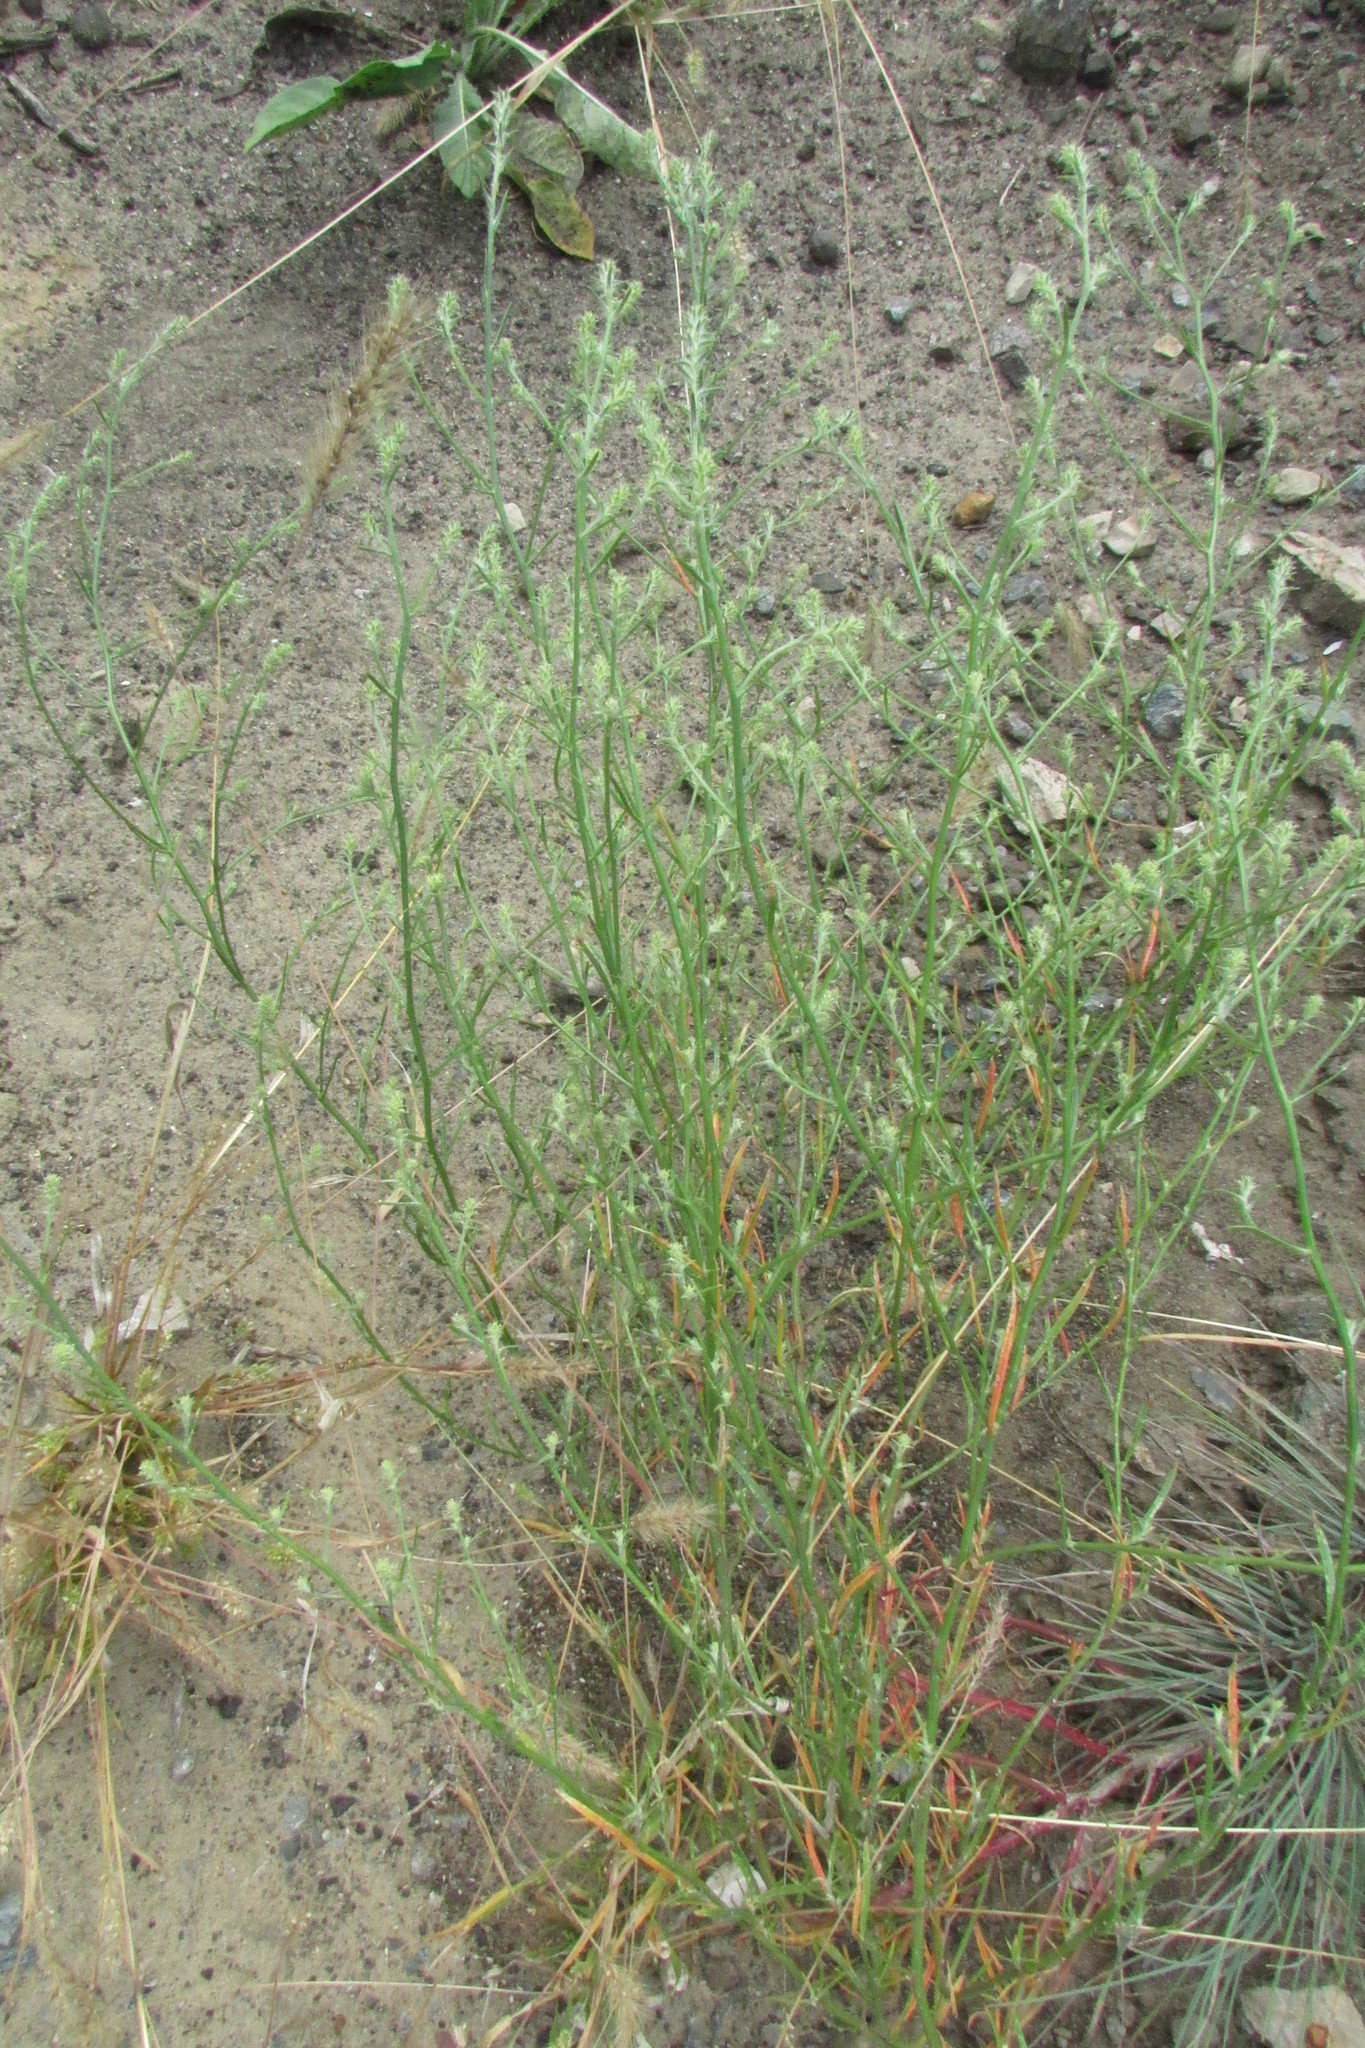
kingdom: Plantae
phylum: Tracheophyta
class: Magnoliopsida
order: Caryophyllales
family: Amaranthaceae
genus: Salsola
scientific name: Salsola tragus
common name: Prickly russian thistle
